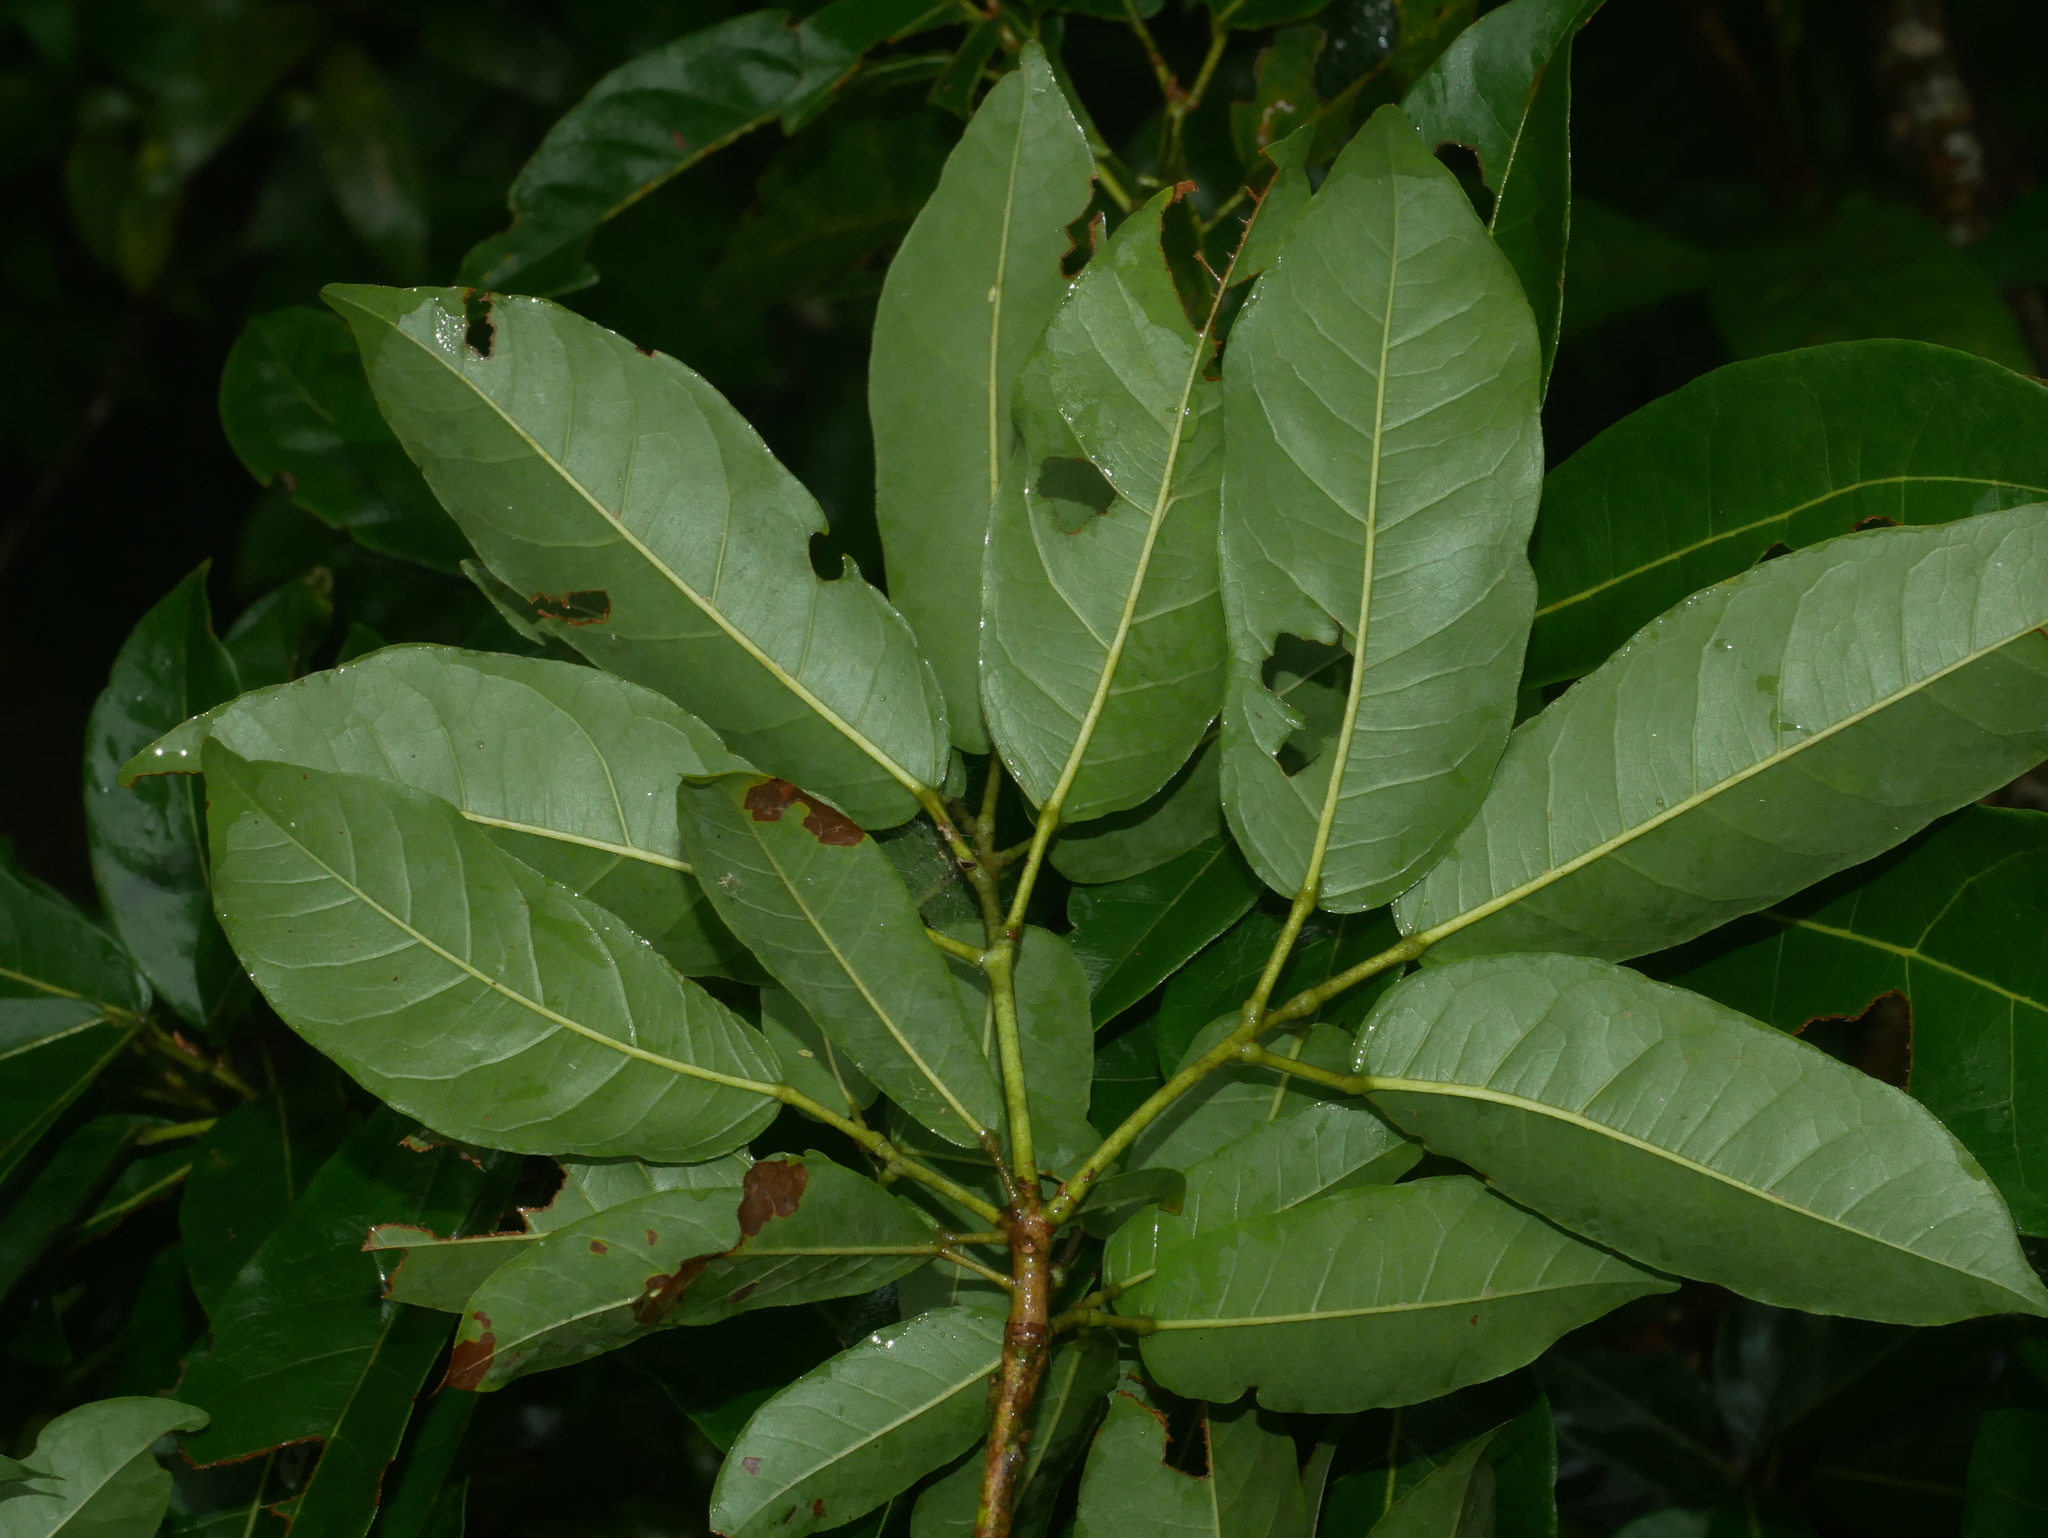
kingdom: Plantae
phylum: Tracheophyta
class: Magnoliopsida
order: Malvales
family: Malvaceae
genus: Reevesia
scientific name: Reevesia thyrsoidea
